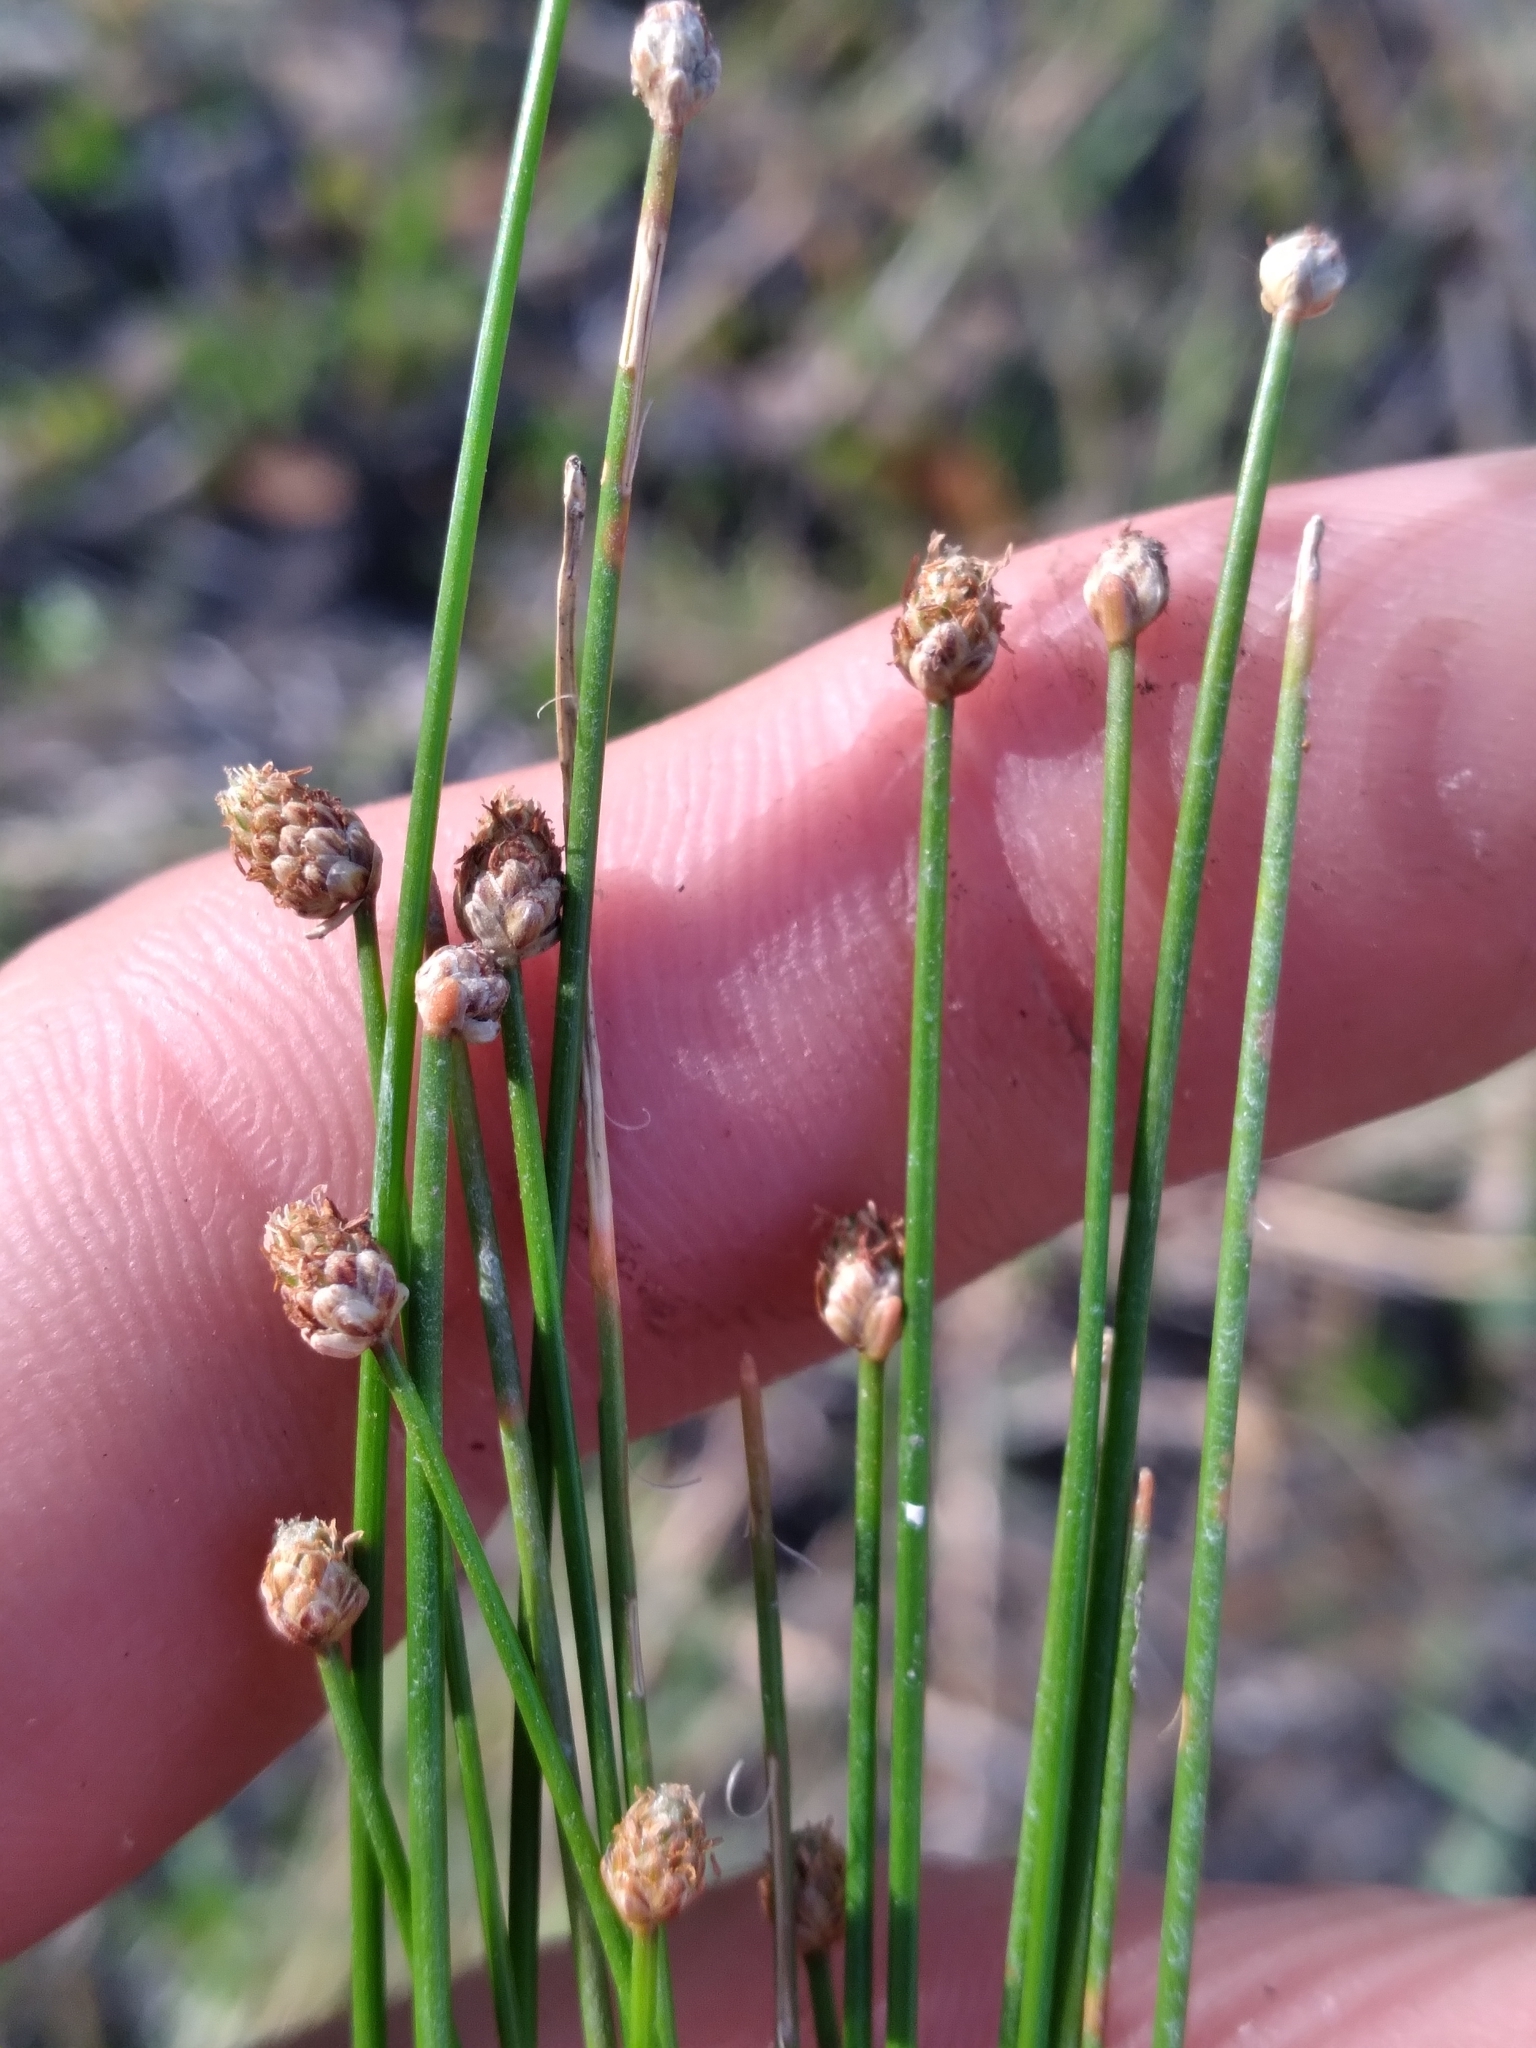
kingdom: Plantae
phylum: Tracheophyta
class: Liliopsida
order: Poales
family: Cyperaceae
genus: Eleocharis
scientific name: Eleocharis geniculata
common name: Canada spikesedge
